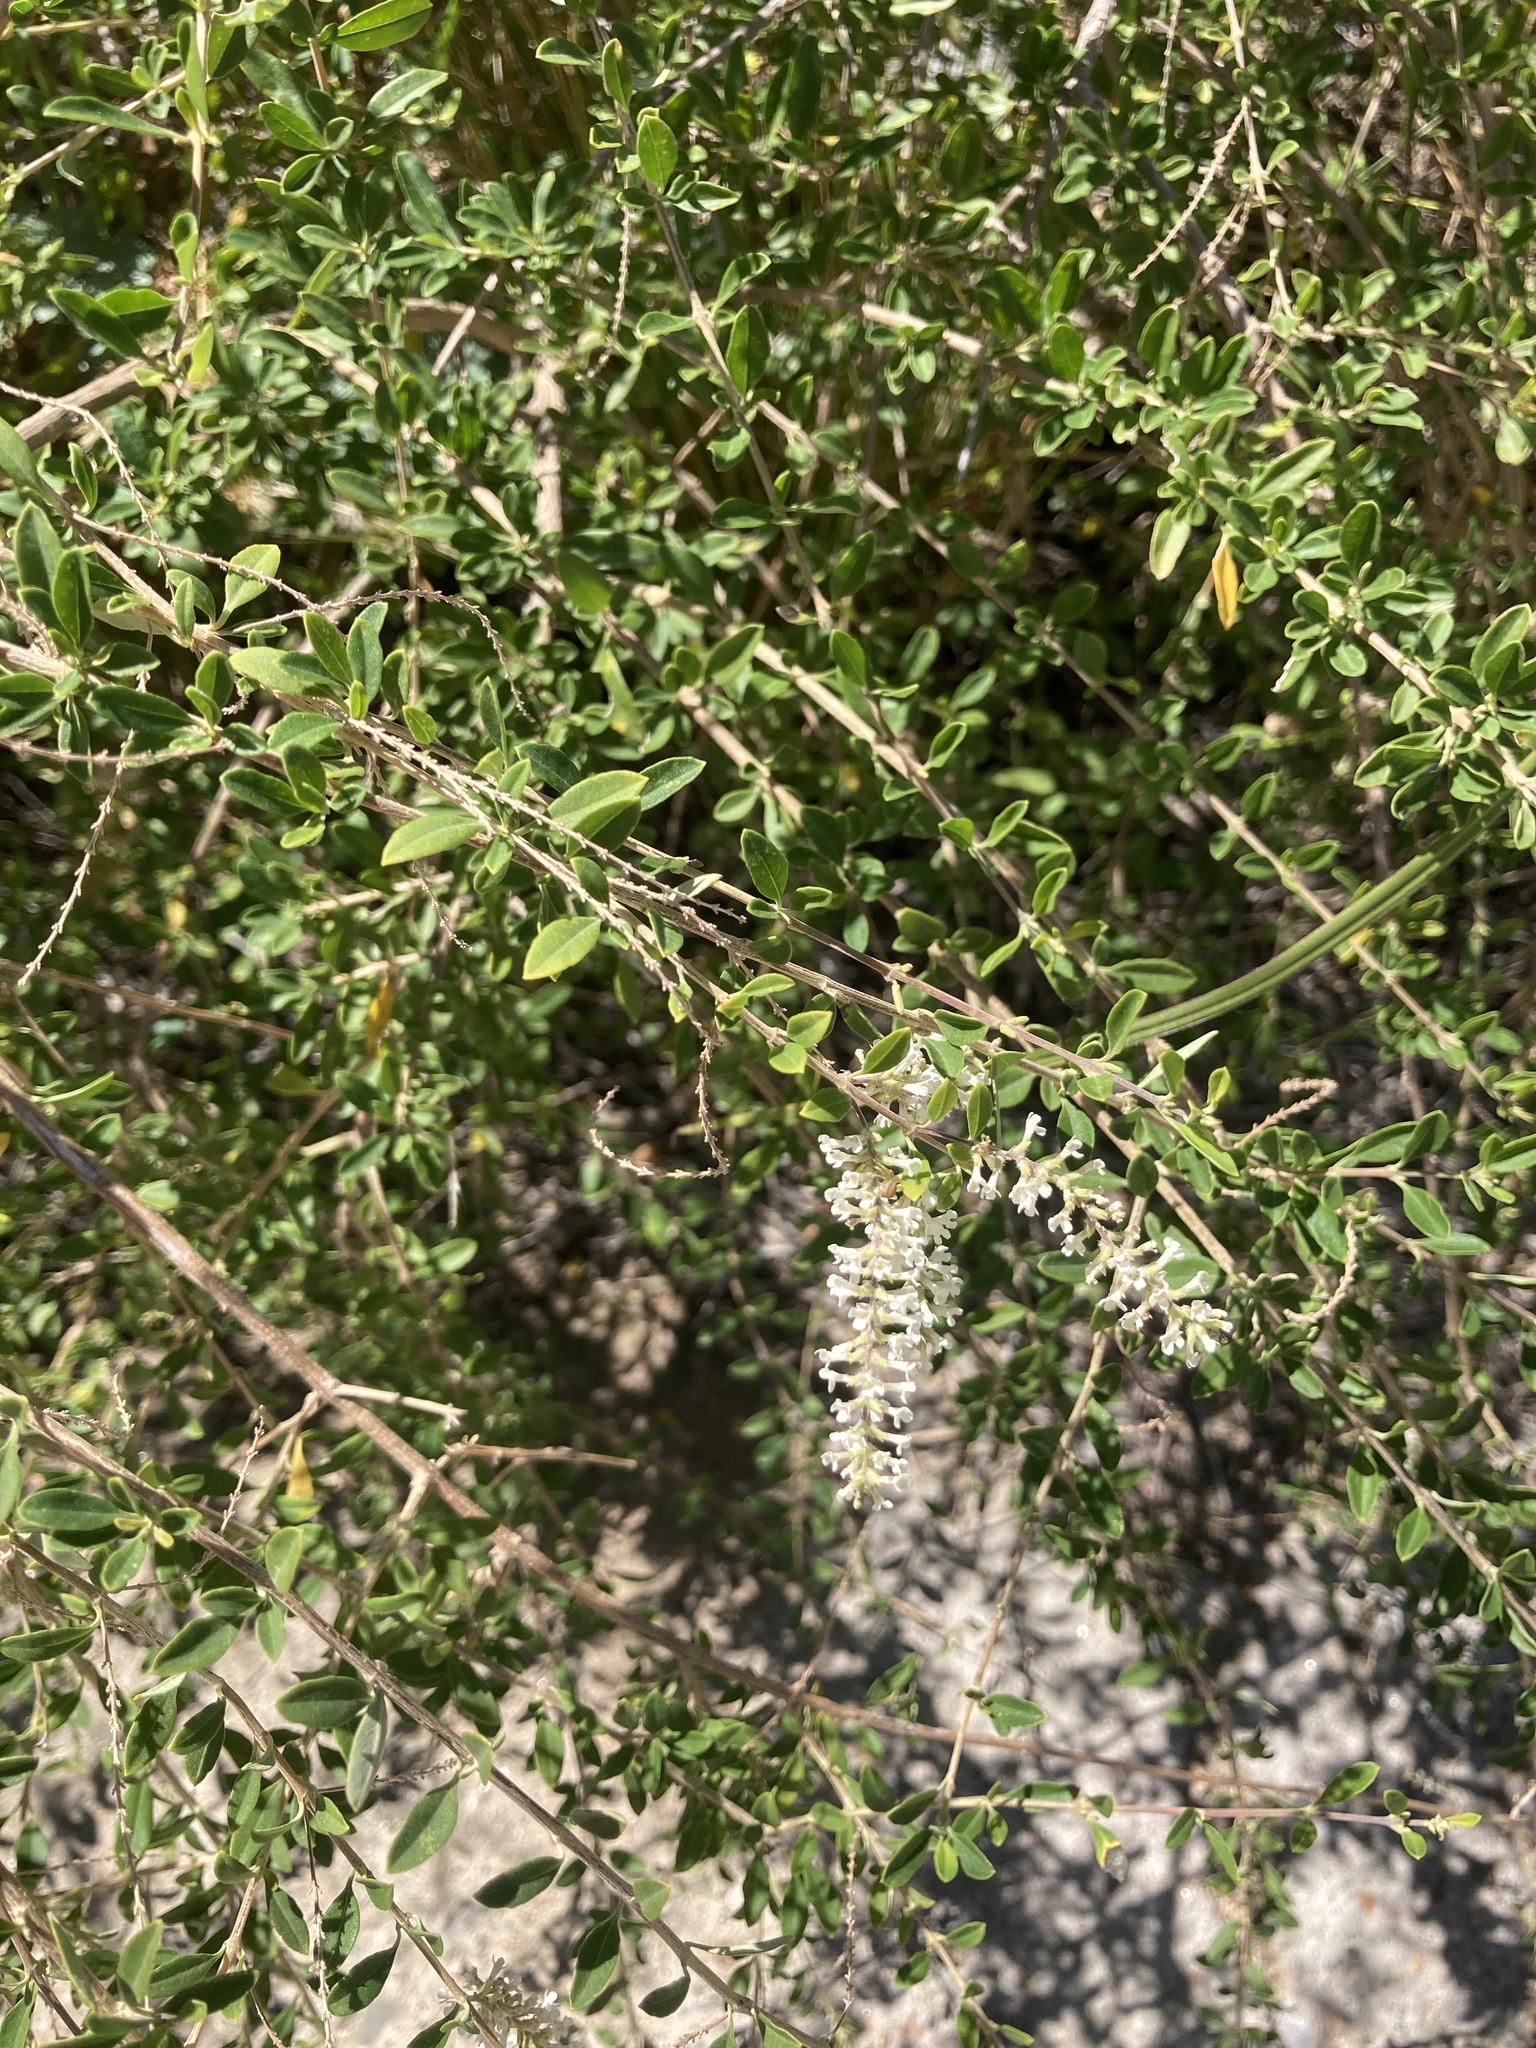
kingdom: Plantae
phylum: Tracheophyta
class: Magnoliopsida
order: Lamiales
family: Verbenaceae
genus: Aloysia
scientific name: Aloysia gratissima
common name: Common bee-brush
